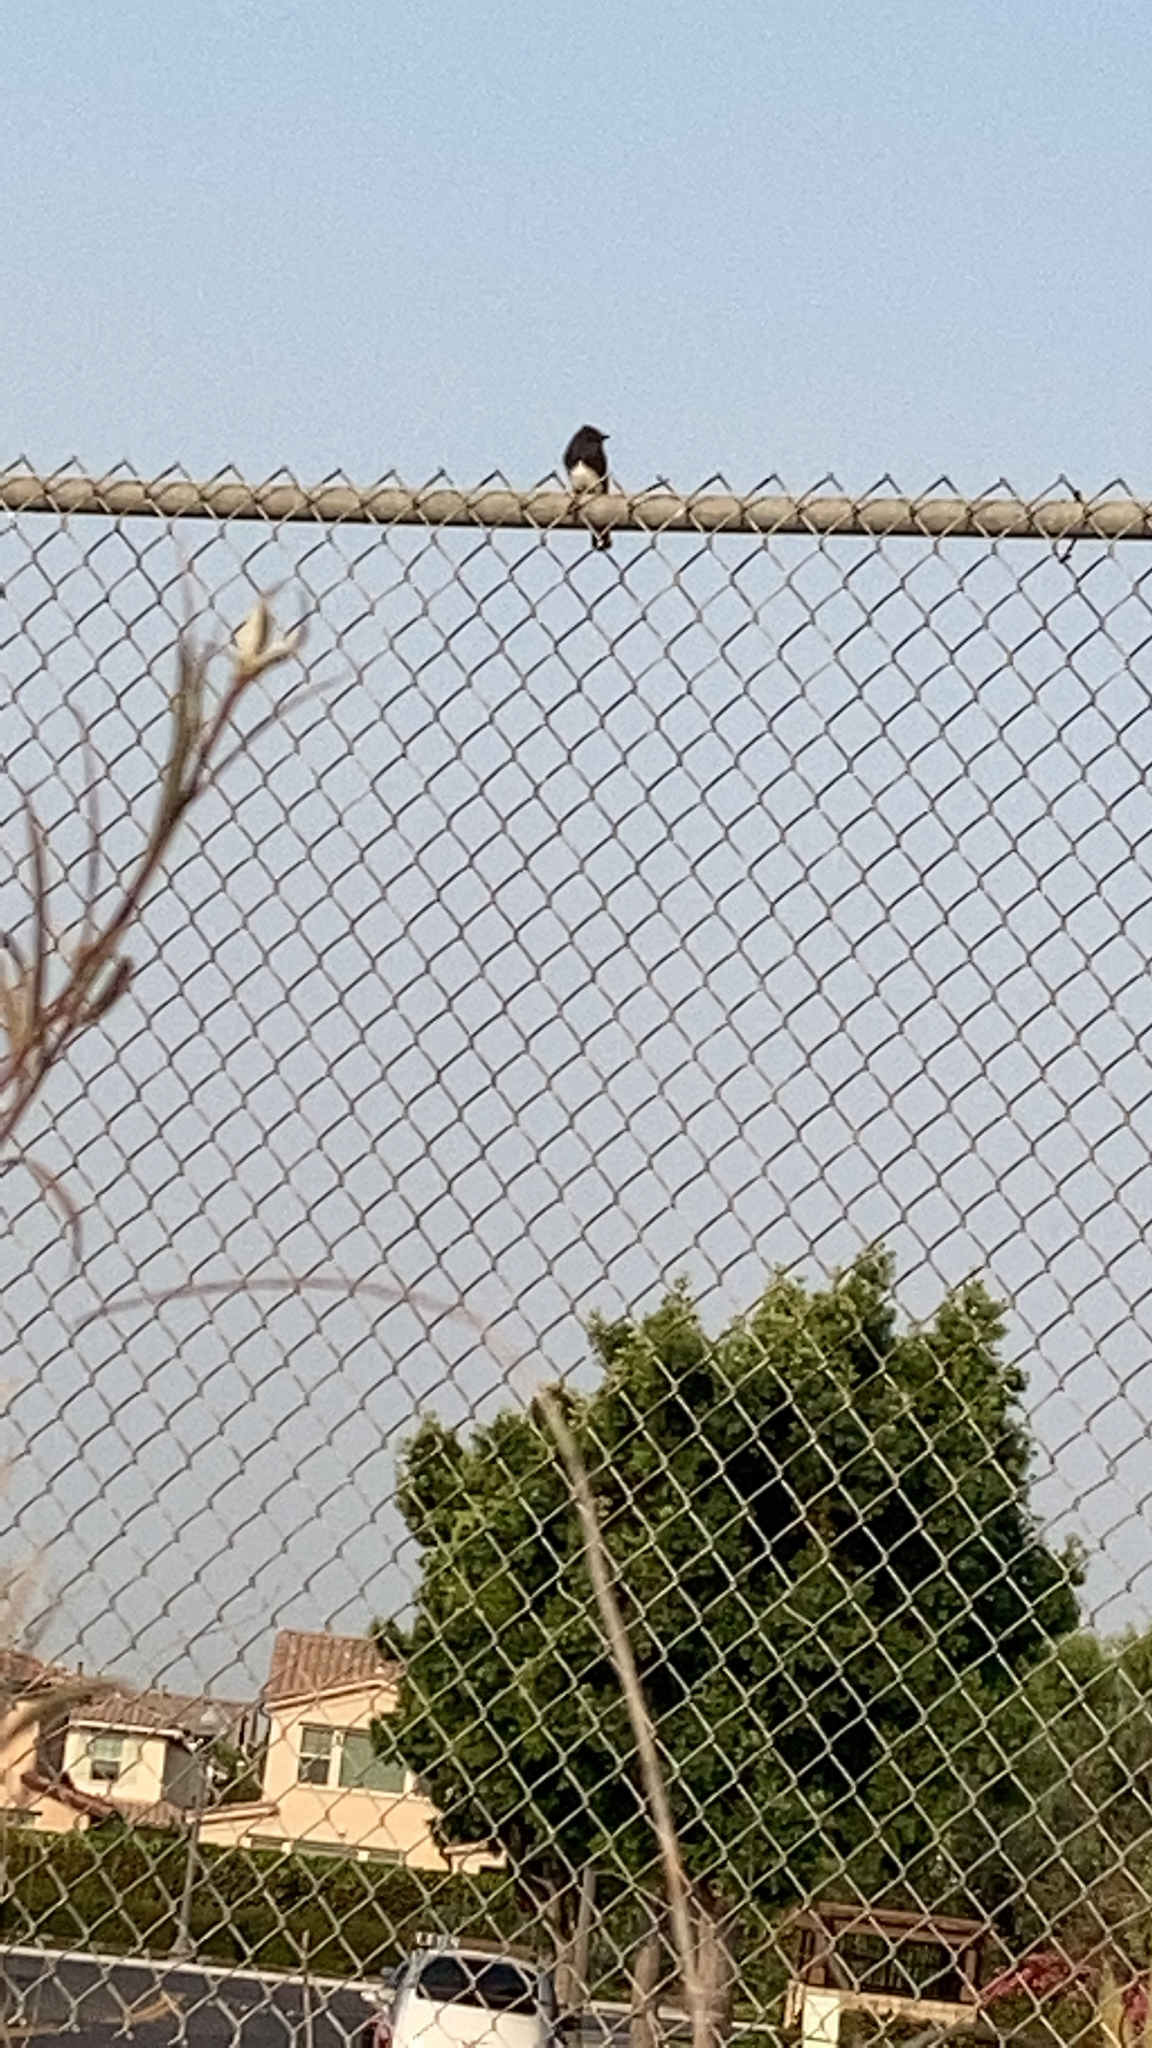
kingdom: Animalia
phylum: Chordata
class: Aves
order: Passeriformes
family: Tyrannidae
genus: Sayornis
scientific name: Sayornis nigricans
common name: Black phoebe
